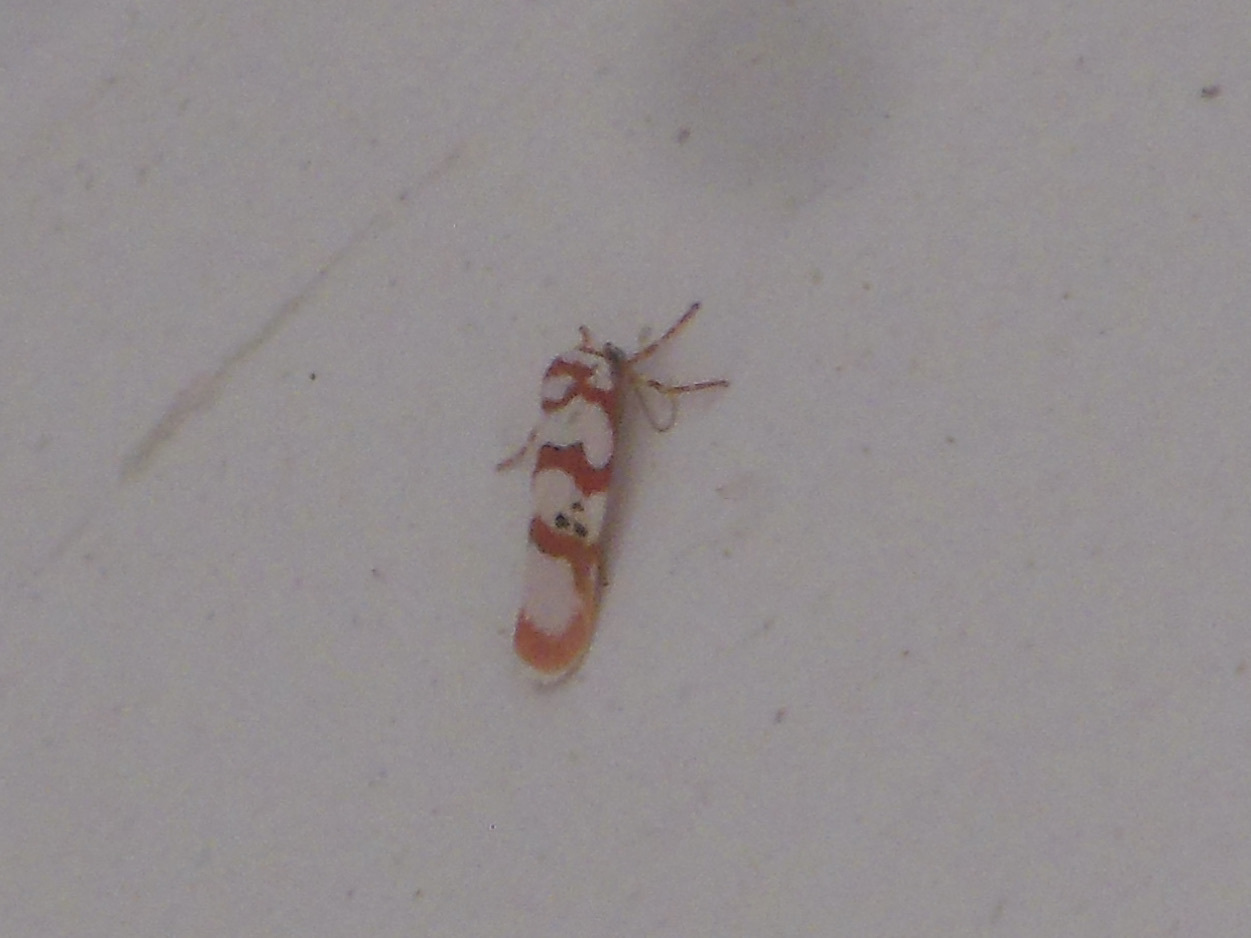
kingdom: Animalia
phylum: Arthropoda
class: Insecta
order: Lepidoptera
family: Erebidae
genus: Cyana
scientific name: Cyana puella
